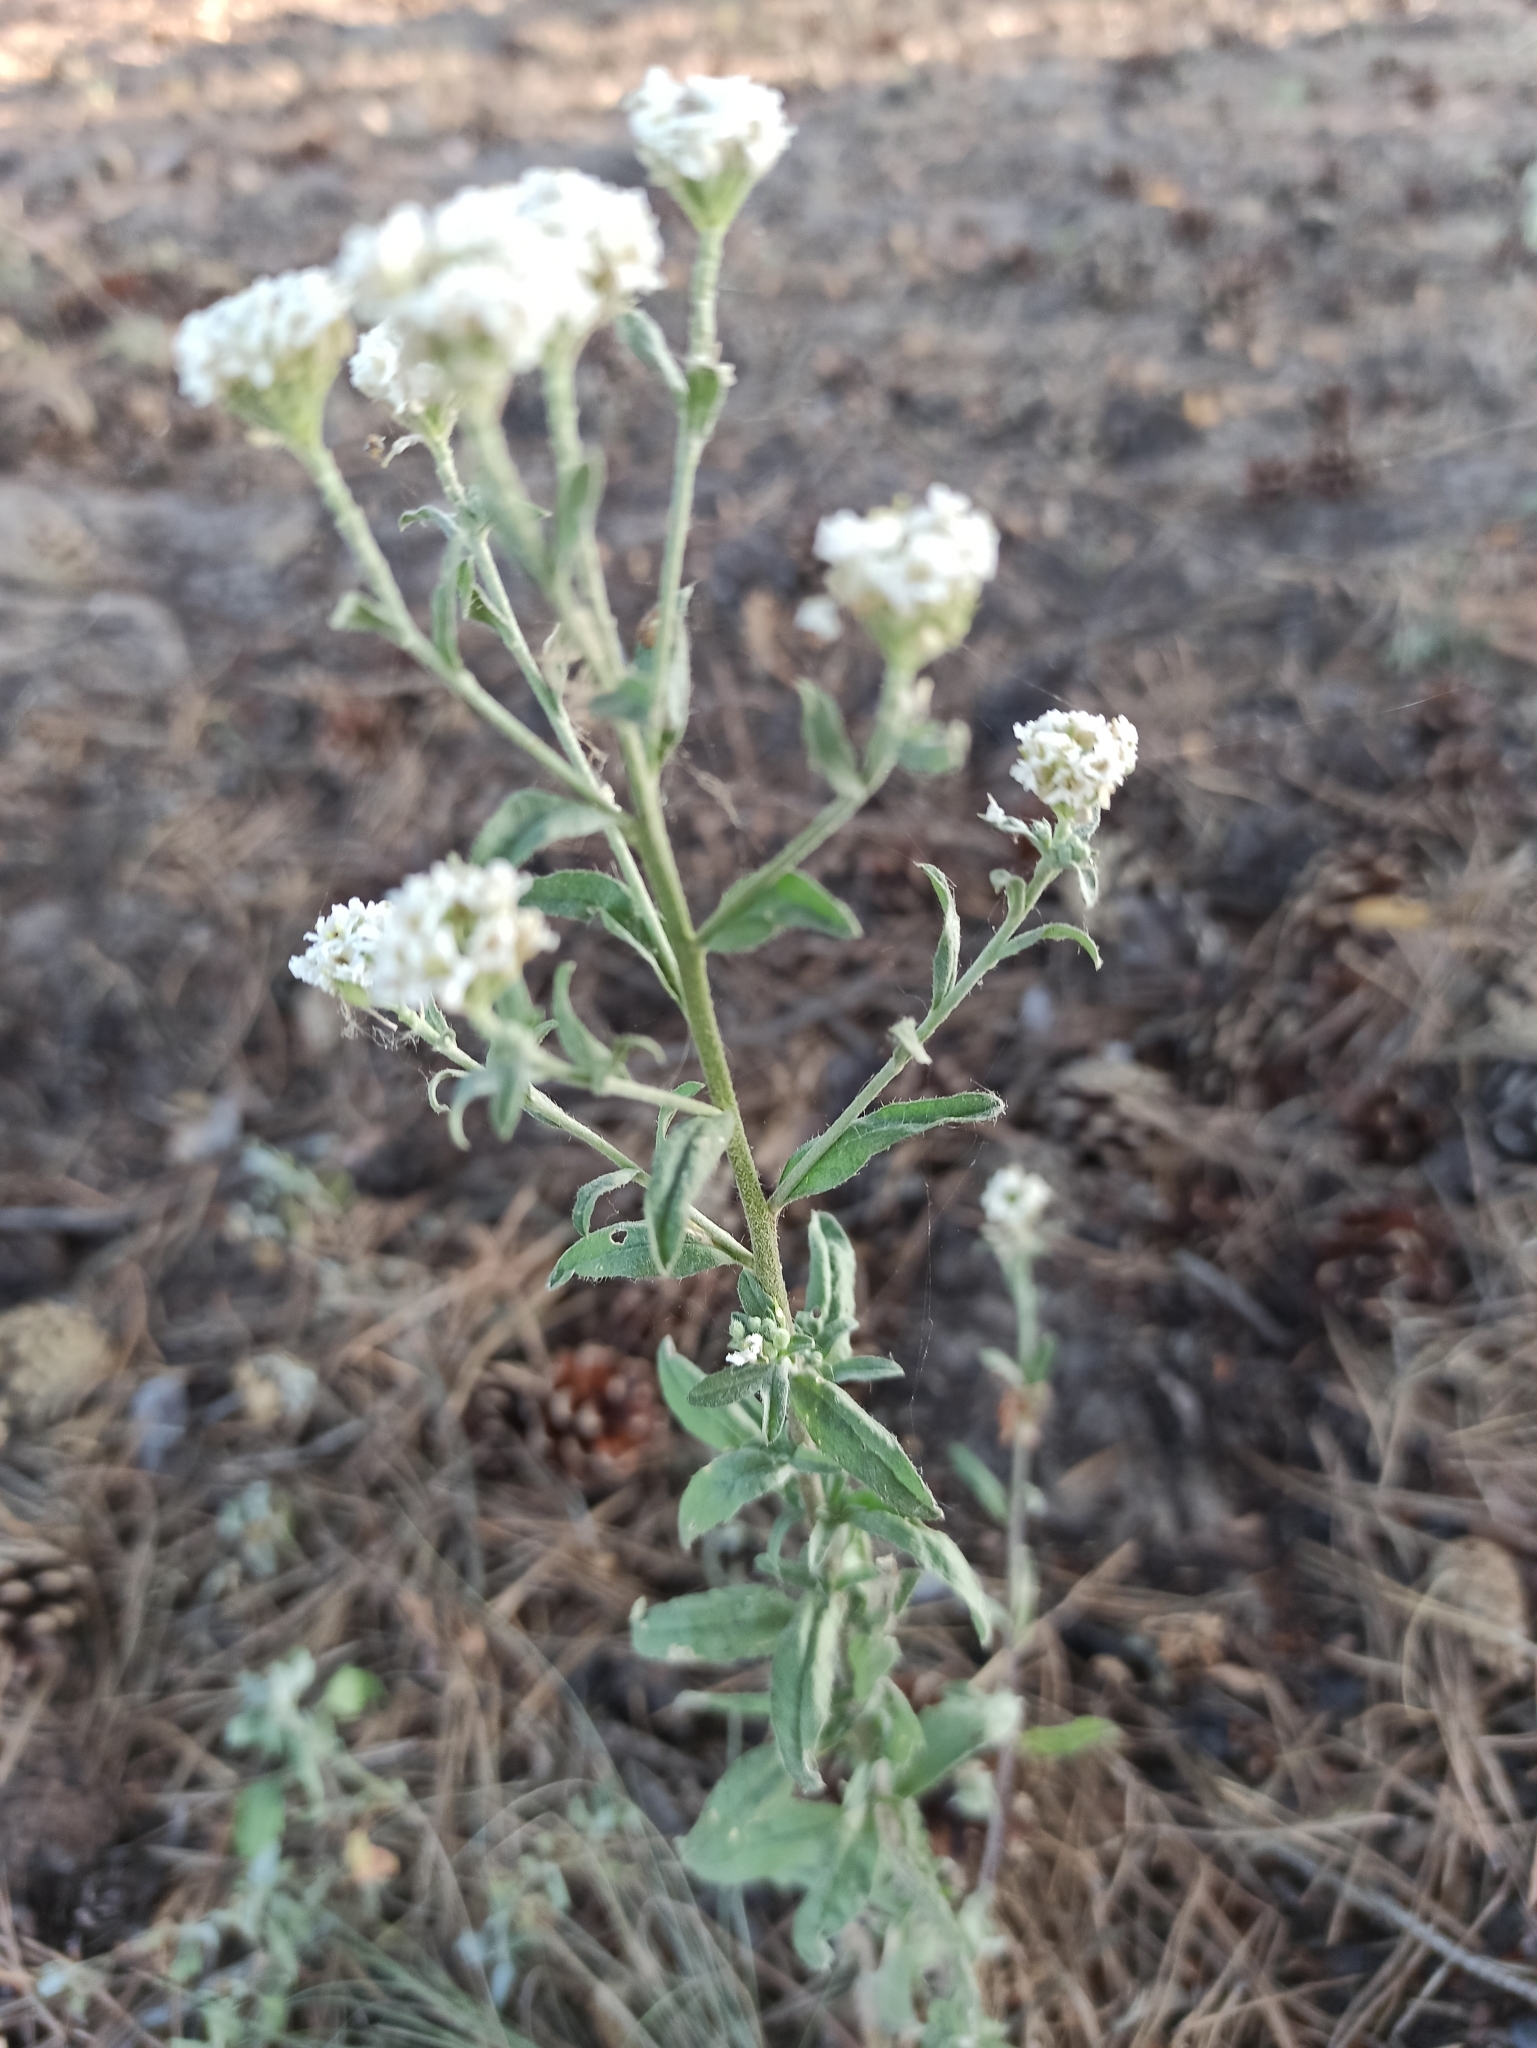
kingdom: Plantae
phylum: Tracheophyta
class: Magnoliopsida
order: Brassicales
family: Brassicaceae
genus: Berteroa
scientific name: Berteroa incana
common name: Hoary alison
